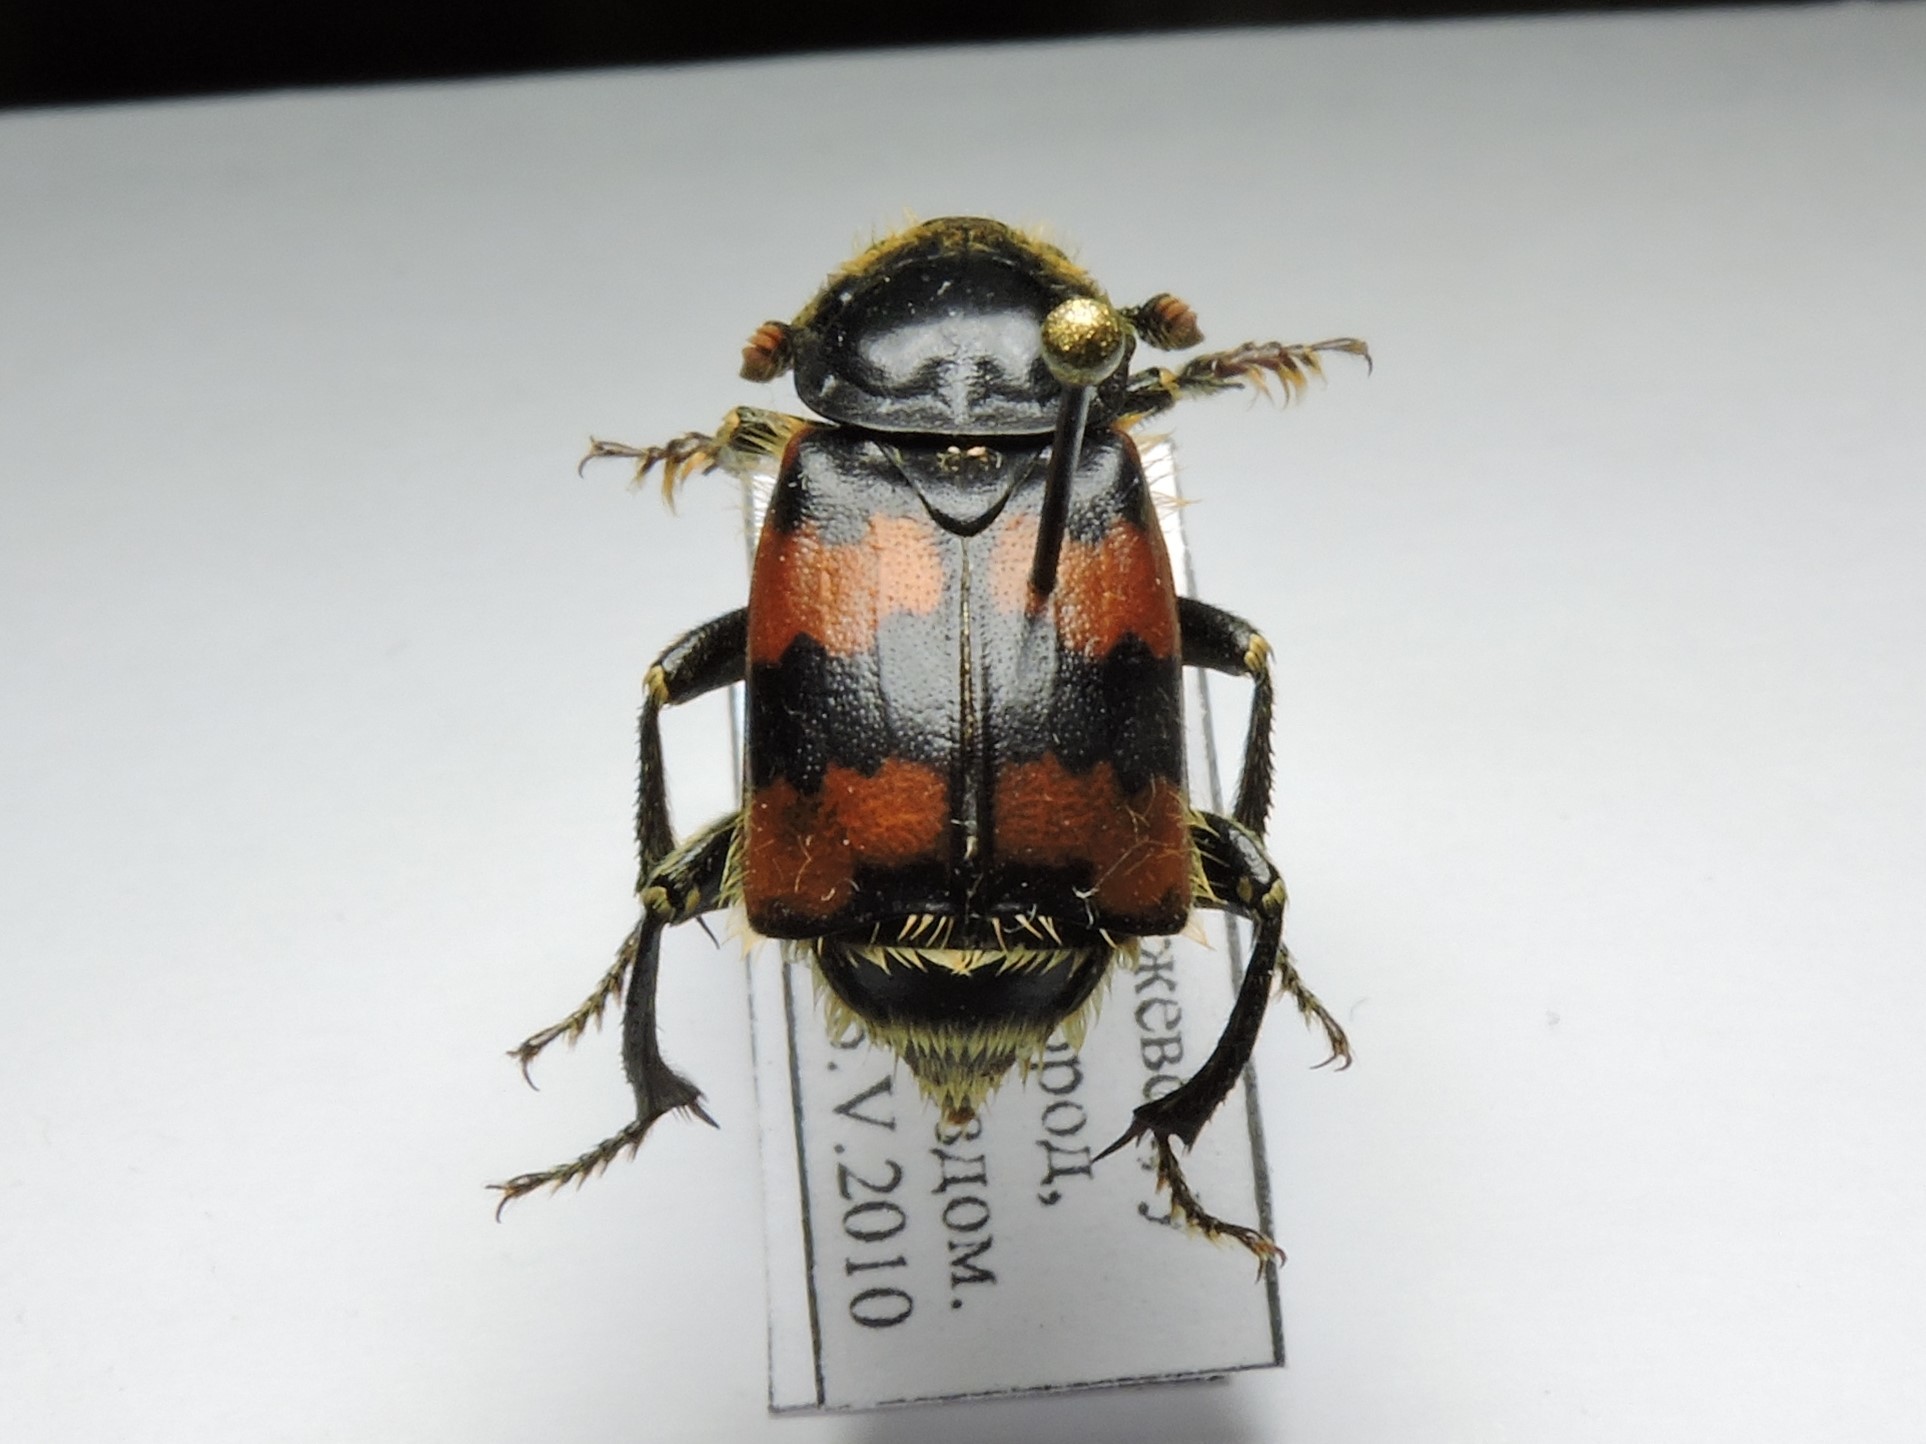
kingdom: Animalia
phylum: Arthropoda
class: Insecta
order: Coleoptera
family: Staphylinidae
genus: Nicrophorus
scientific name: Nicrophorus vespillo
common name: Common burying beetle
